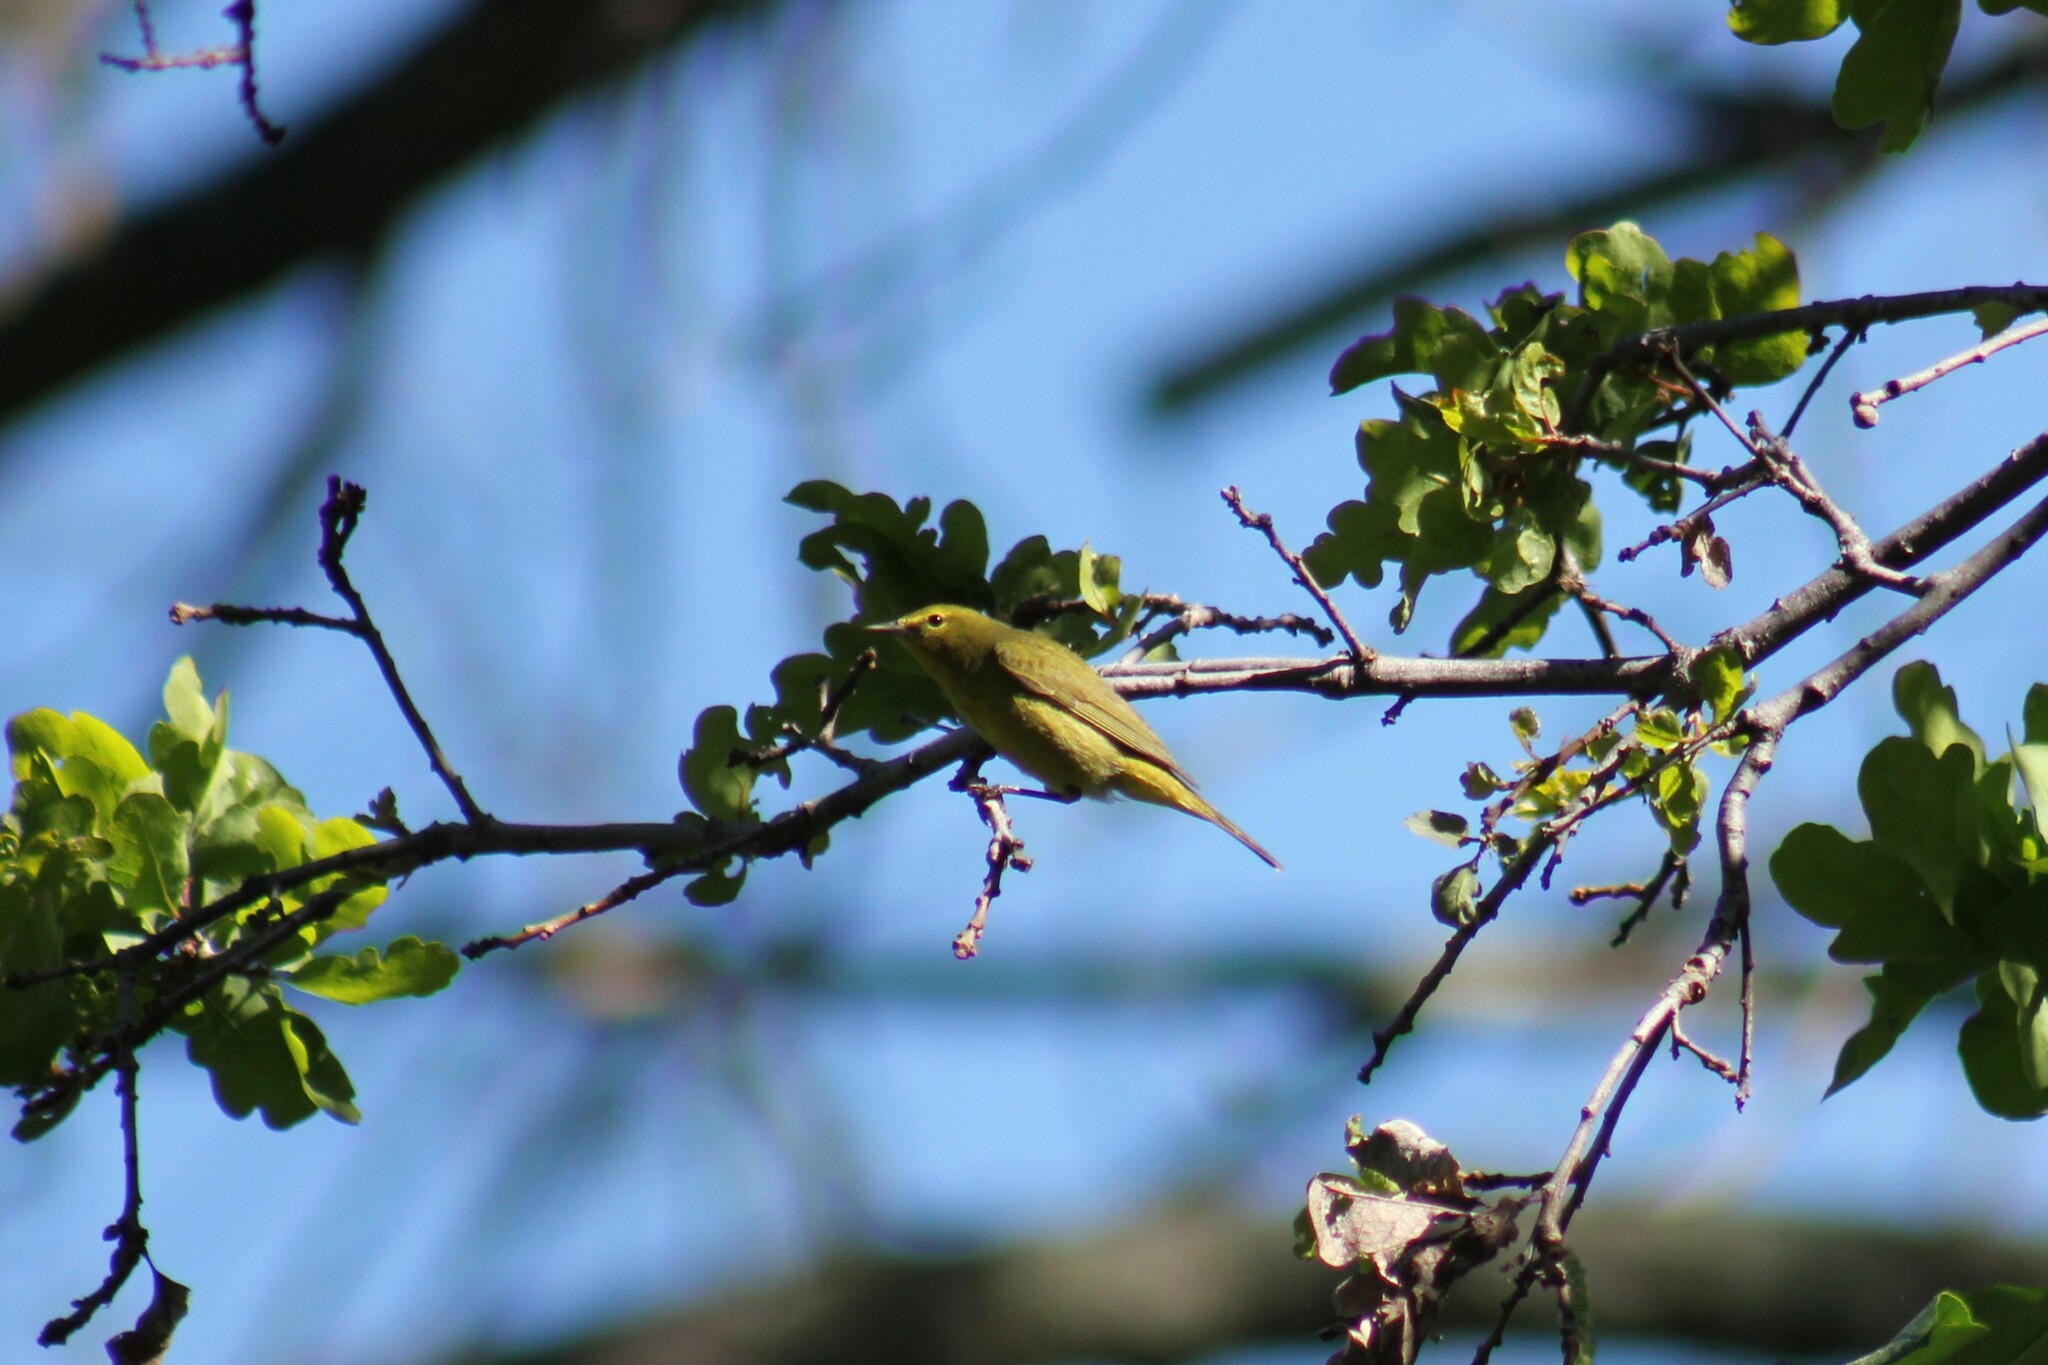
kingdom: Animalia
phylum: Chordata
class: Aves
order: Passeriformes
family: Parulidae
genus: Leiothlypis
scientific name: Leiothlypis celata
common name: Orange-crowned warbler
